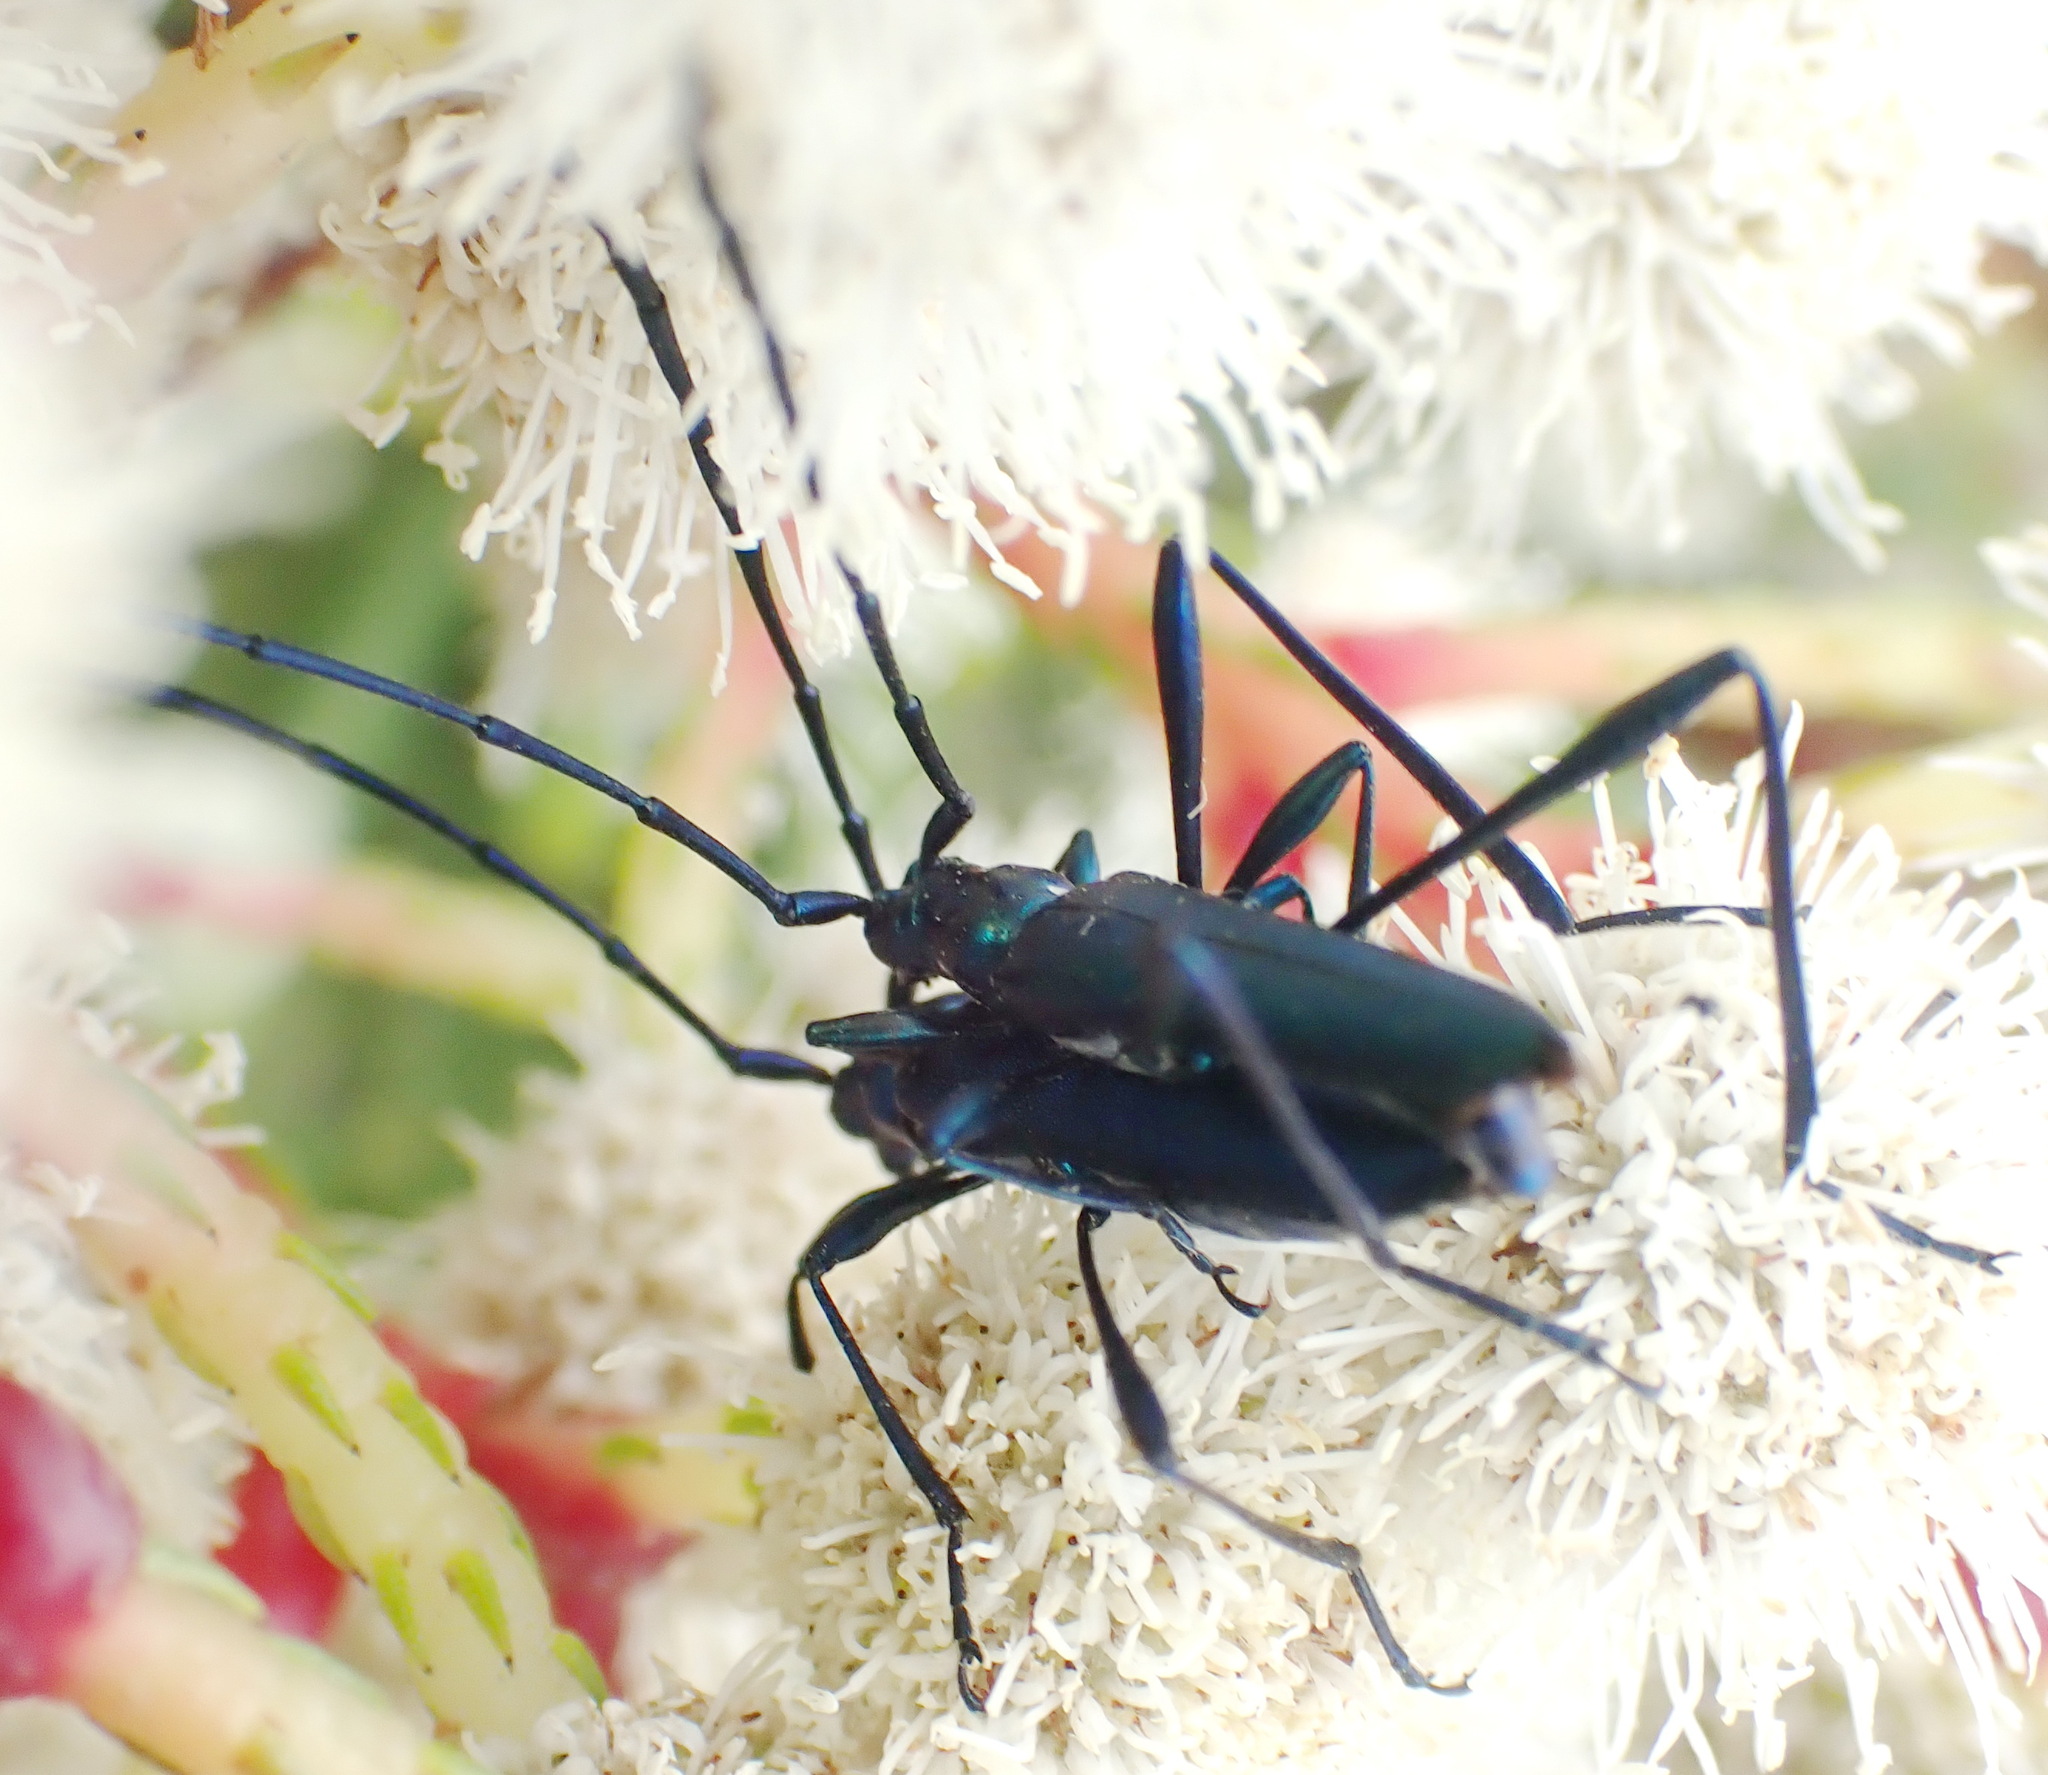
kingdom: Animalia
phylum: Arthropoda
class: Insecta
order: Coleoptera
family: Cerambycidae
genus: Promeces
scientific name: Promeces longipes
